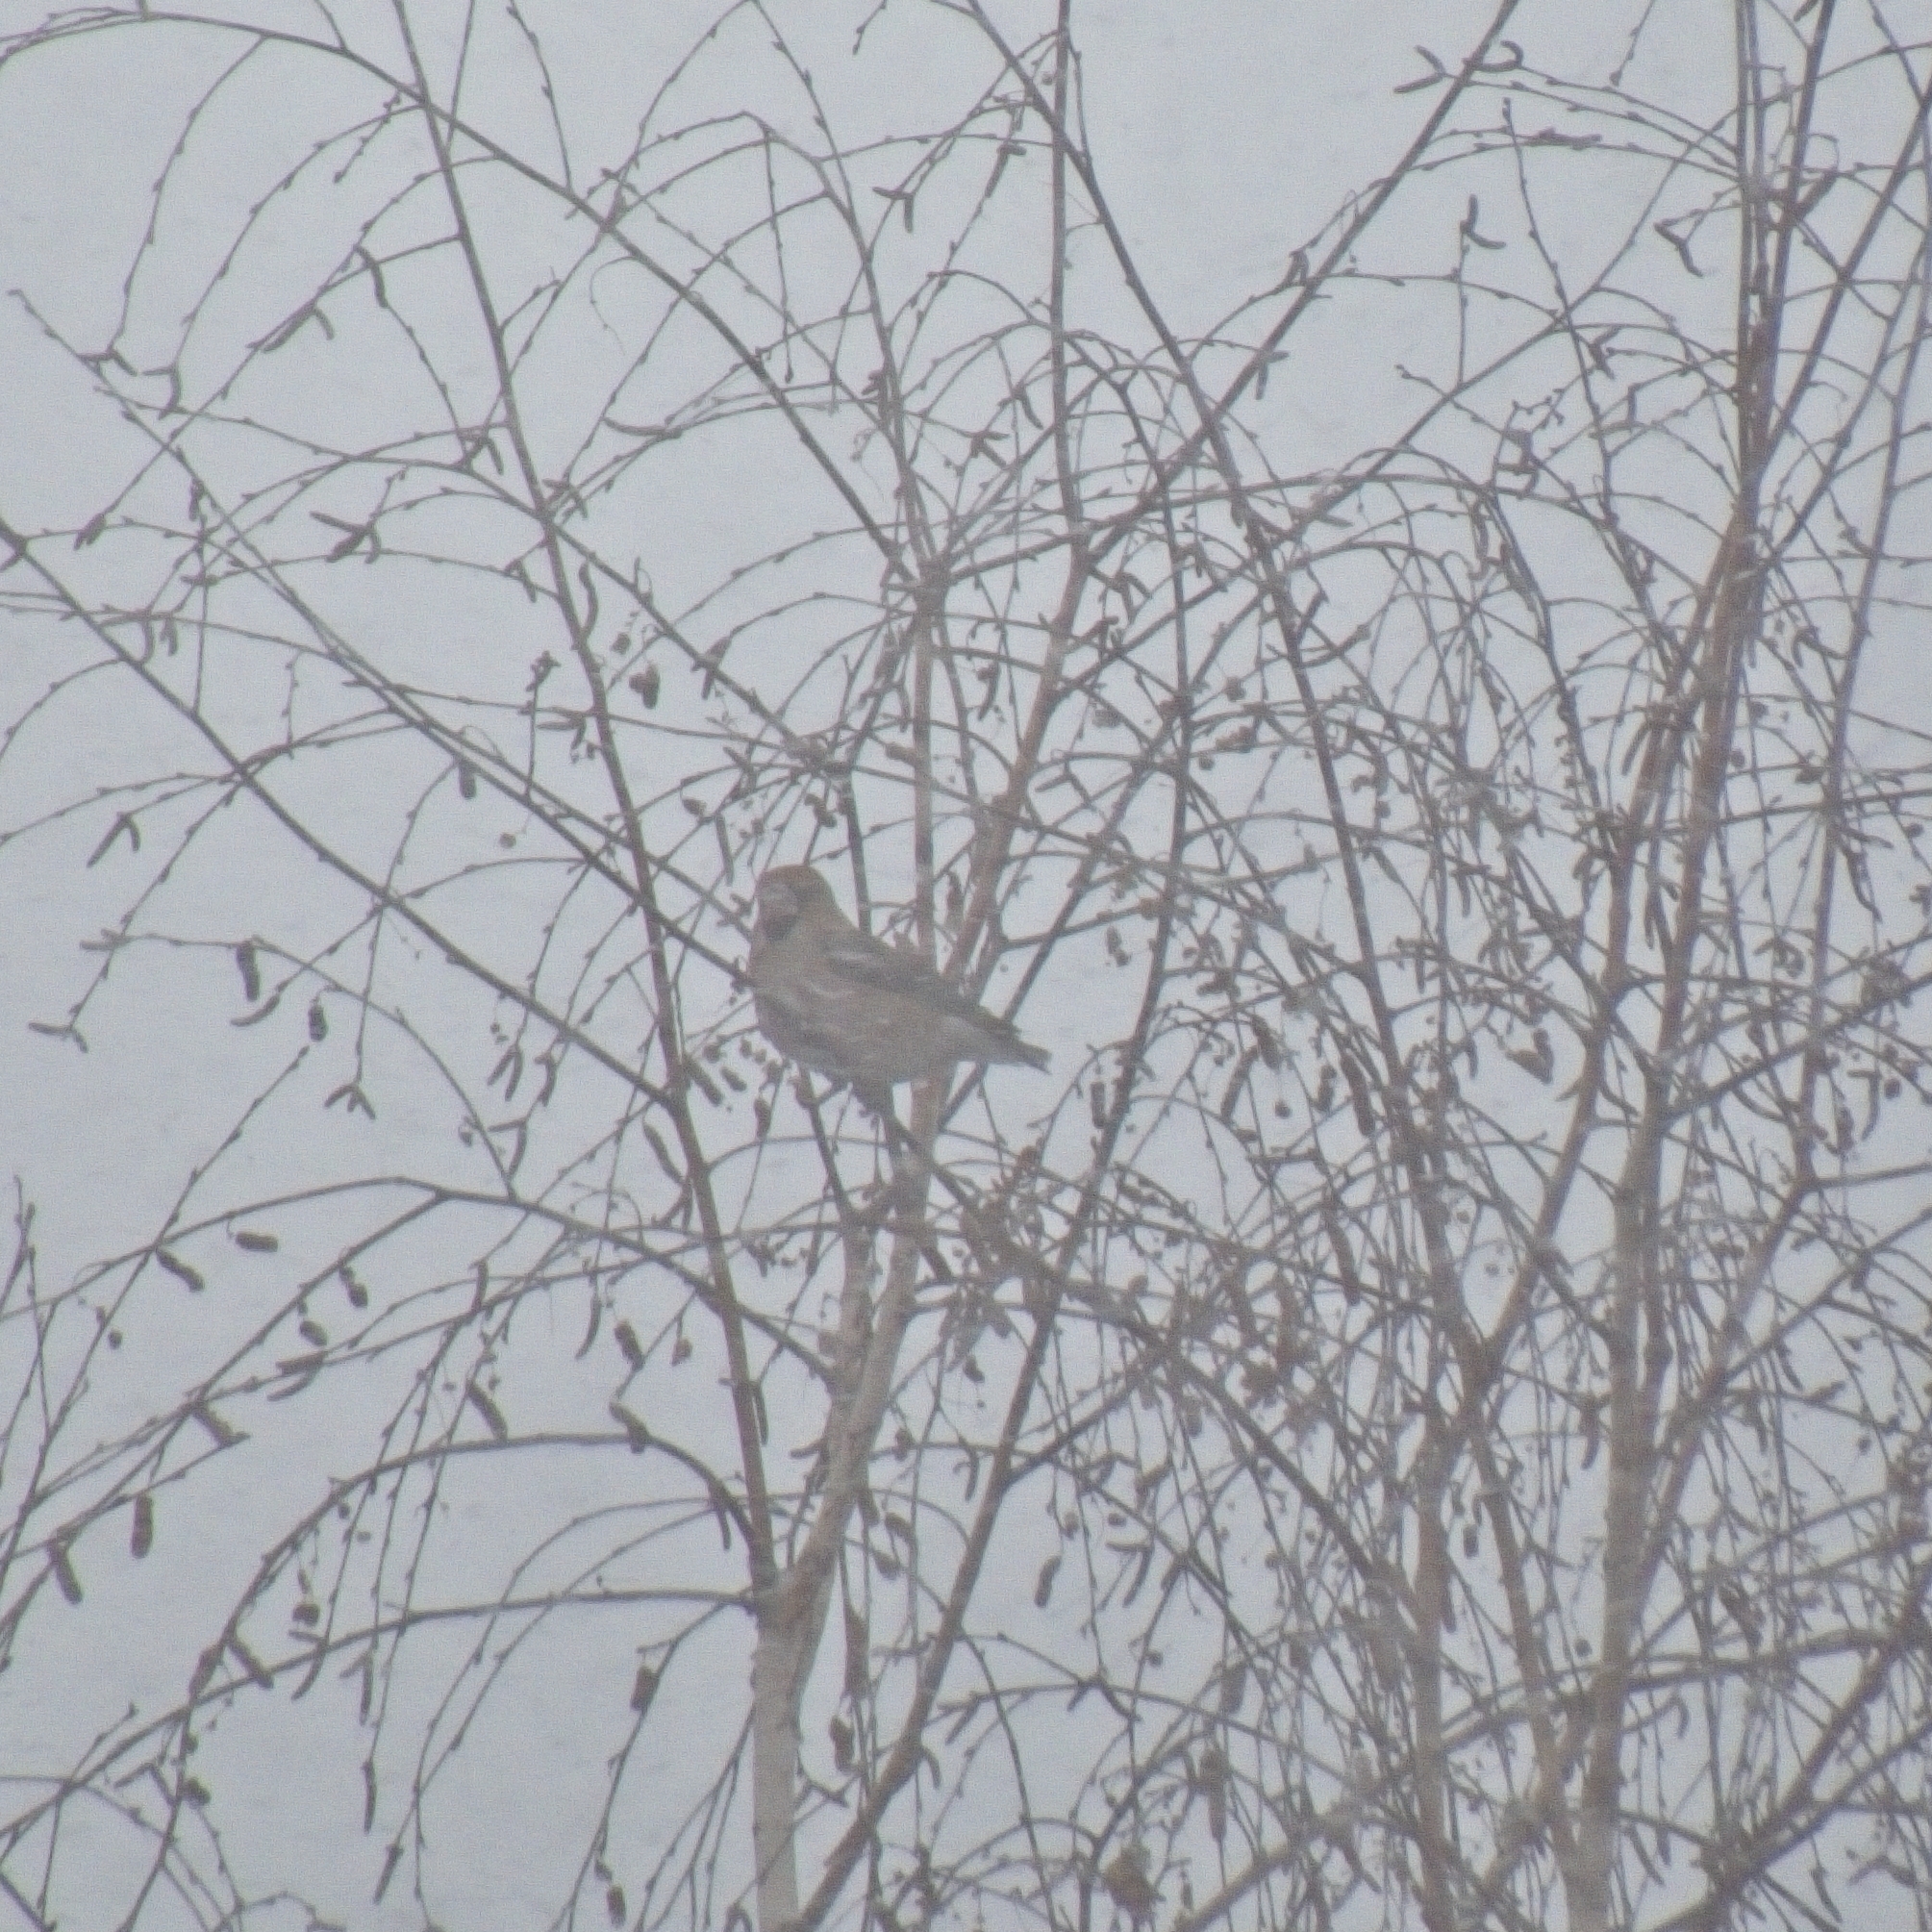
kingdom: Animalia
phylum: Chordata
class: Aves
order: Passeriformes
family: Fringillidae
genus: Coccothraustes
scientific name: Coccothraustes coccothraustes
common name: Hawfinch
